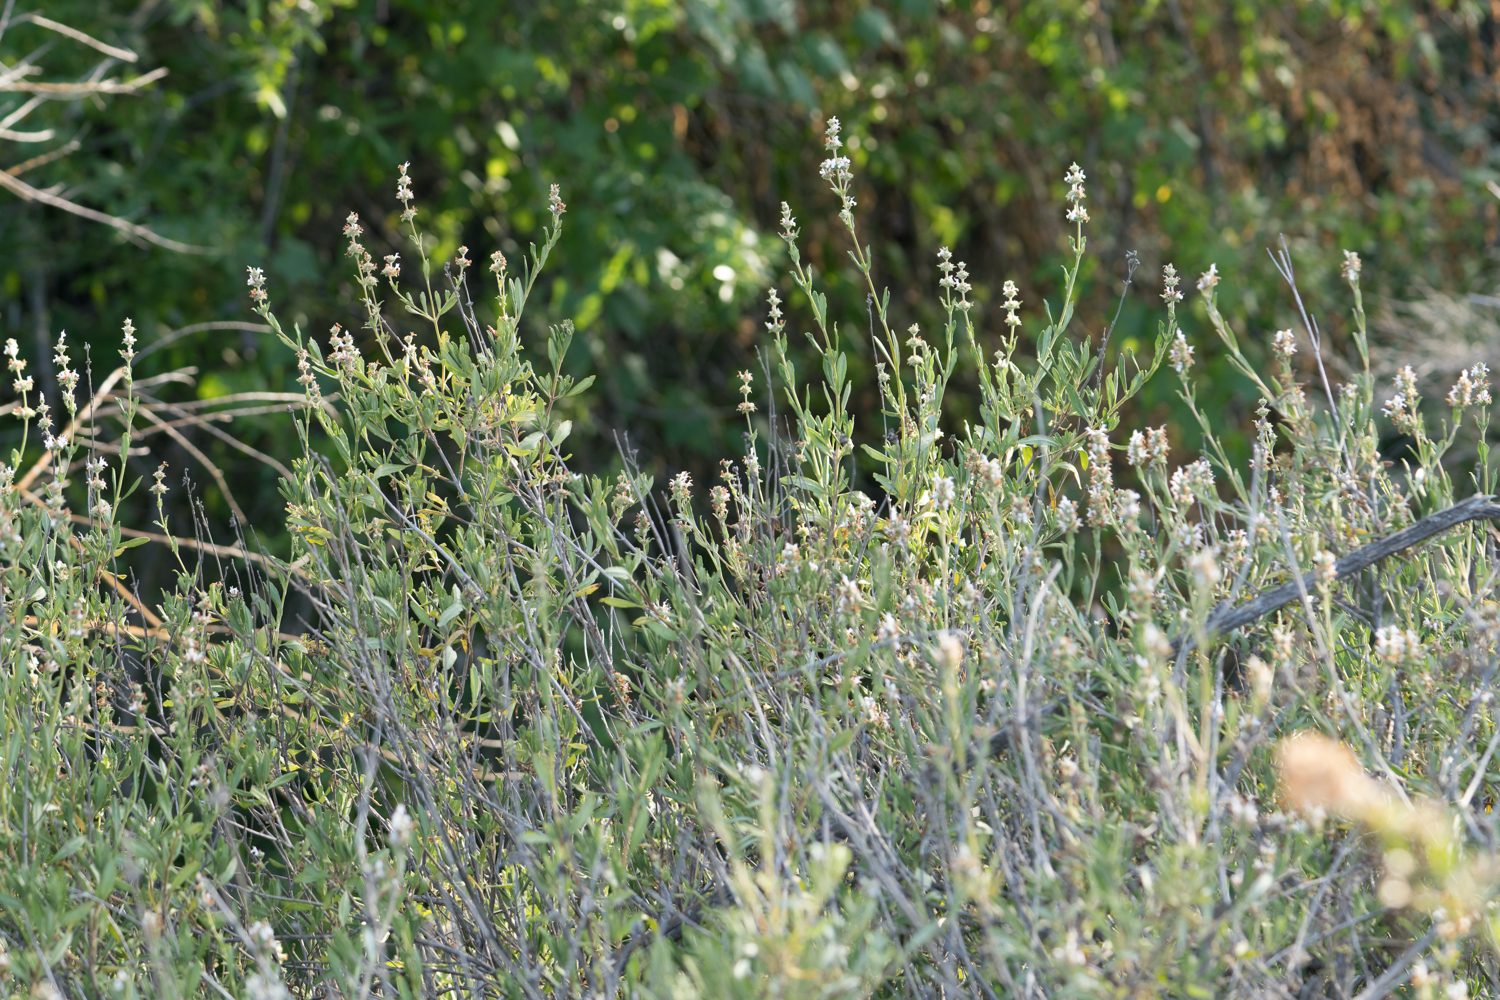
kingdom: Plantae
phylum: Tracheophyta
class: Magnoliopsida
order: Lamiales
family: Lamiaceae
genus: Salvia
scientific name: Salvia mellifera
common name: Black sage
